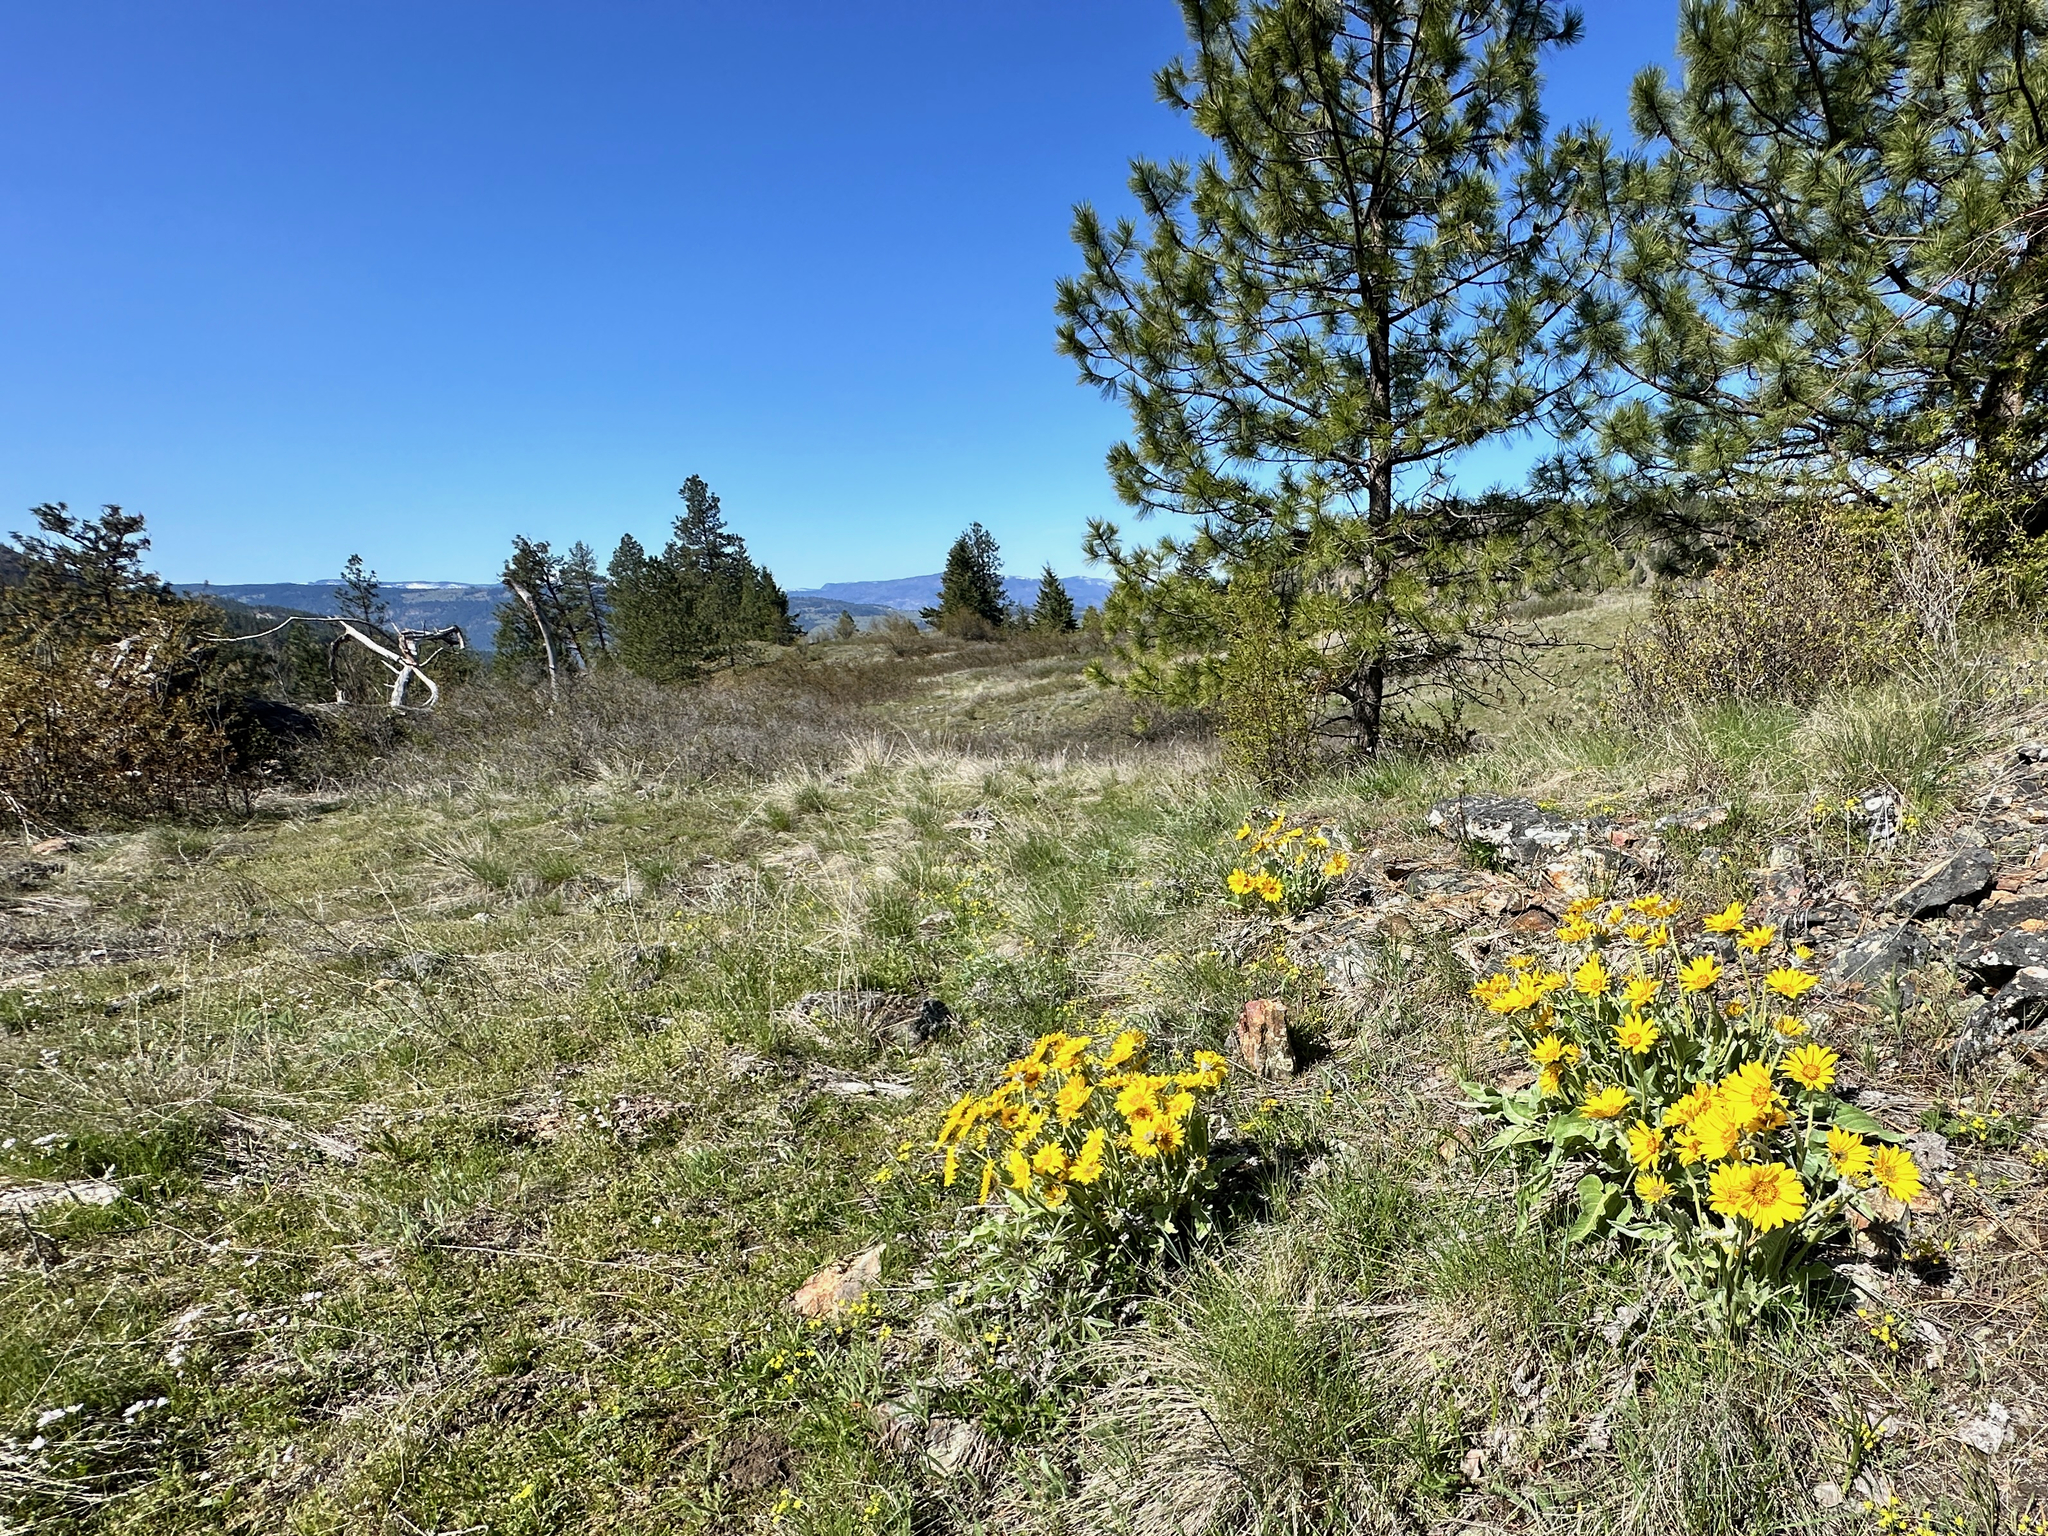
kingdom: Plantae
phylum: Tracheophyta
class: Magnoliopsida
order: Asterales
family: Asteraceae
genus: Wyethia
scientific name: Wyethia sagittata
